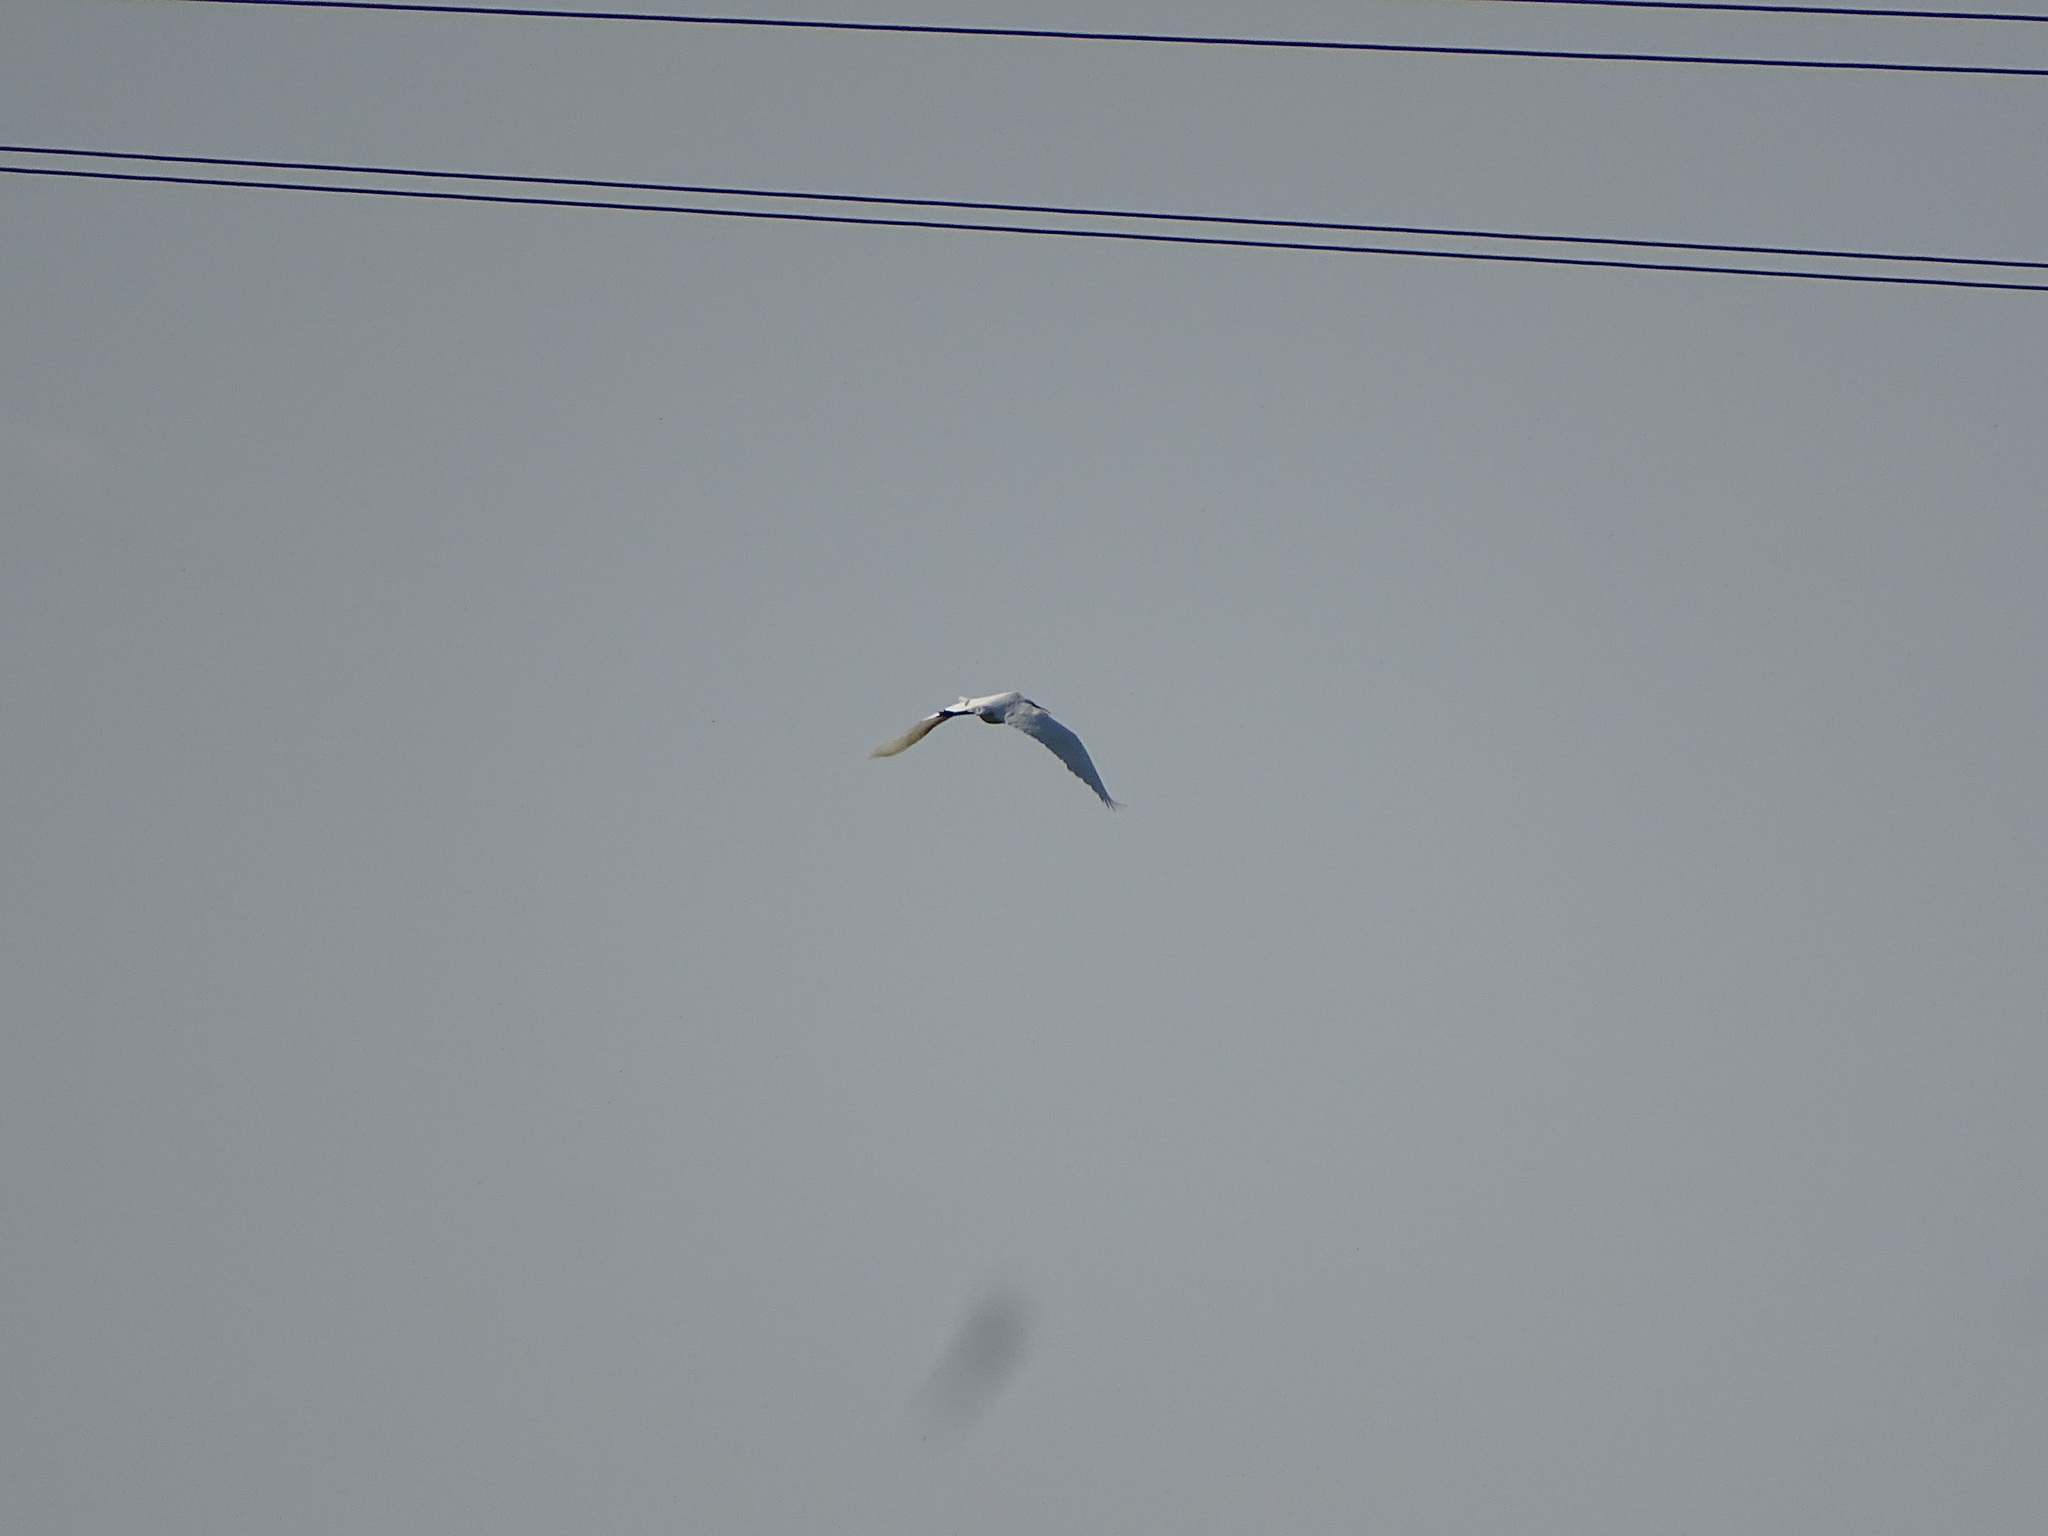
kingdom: Animalia
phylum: Chordata
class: Aves
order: Pelecaniformes
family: Ardeidae
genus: Ardea
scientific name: Ardea alba
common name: Great egret
